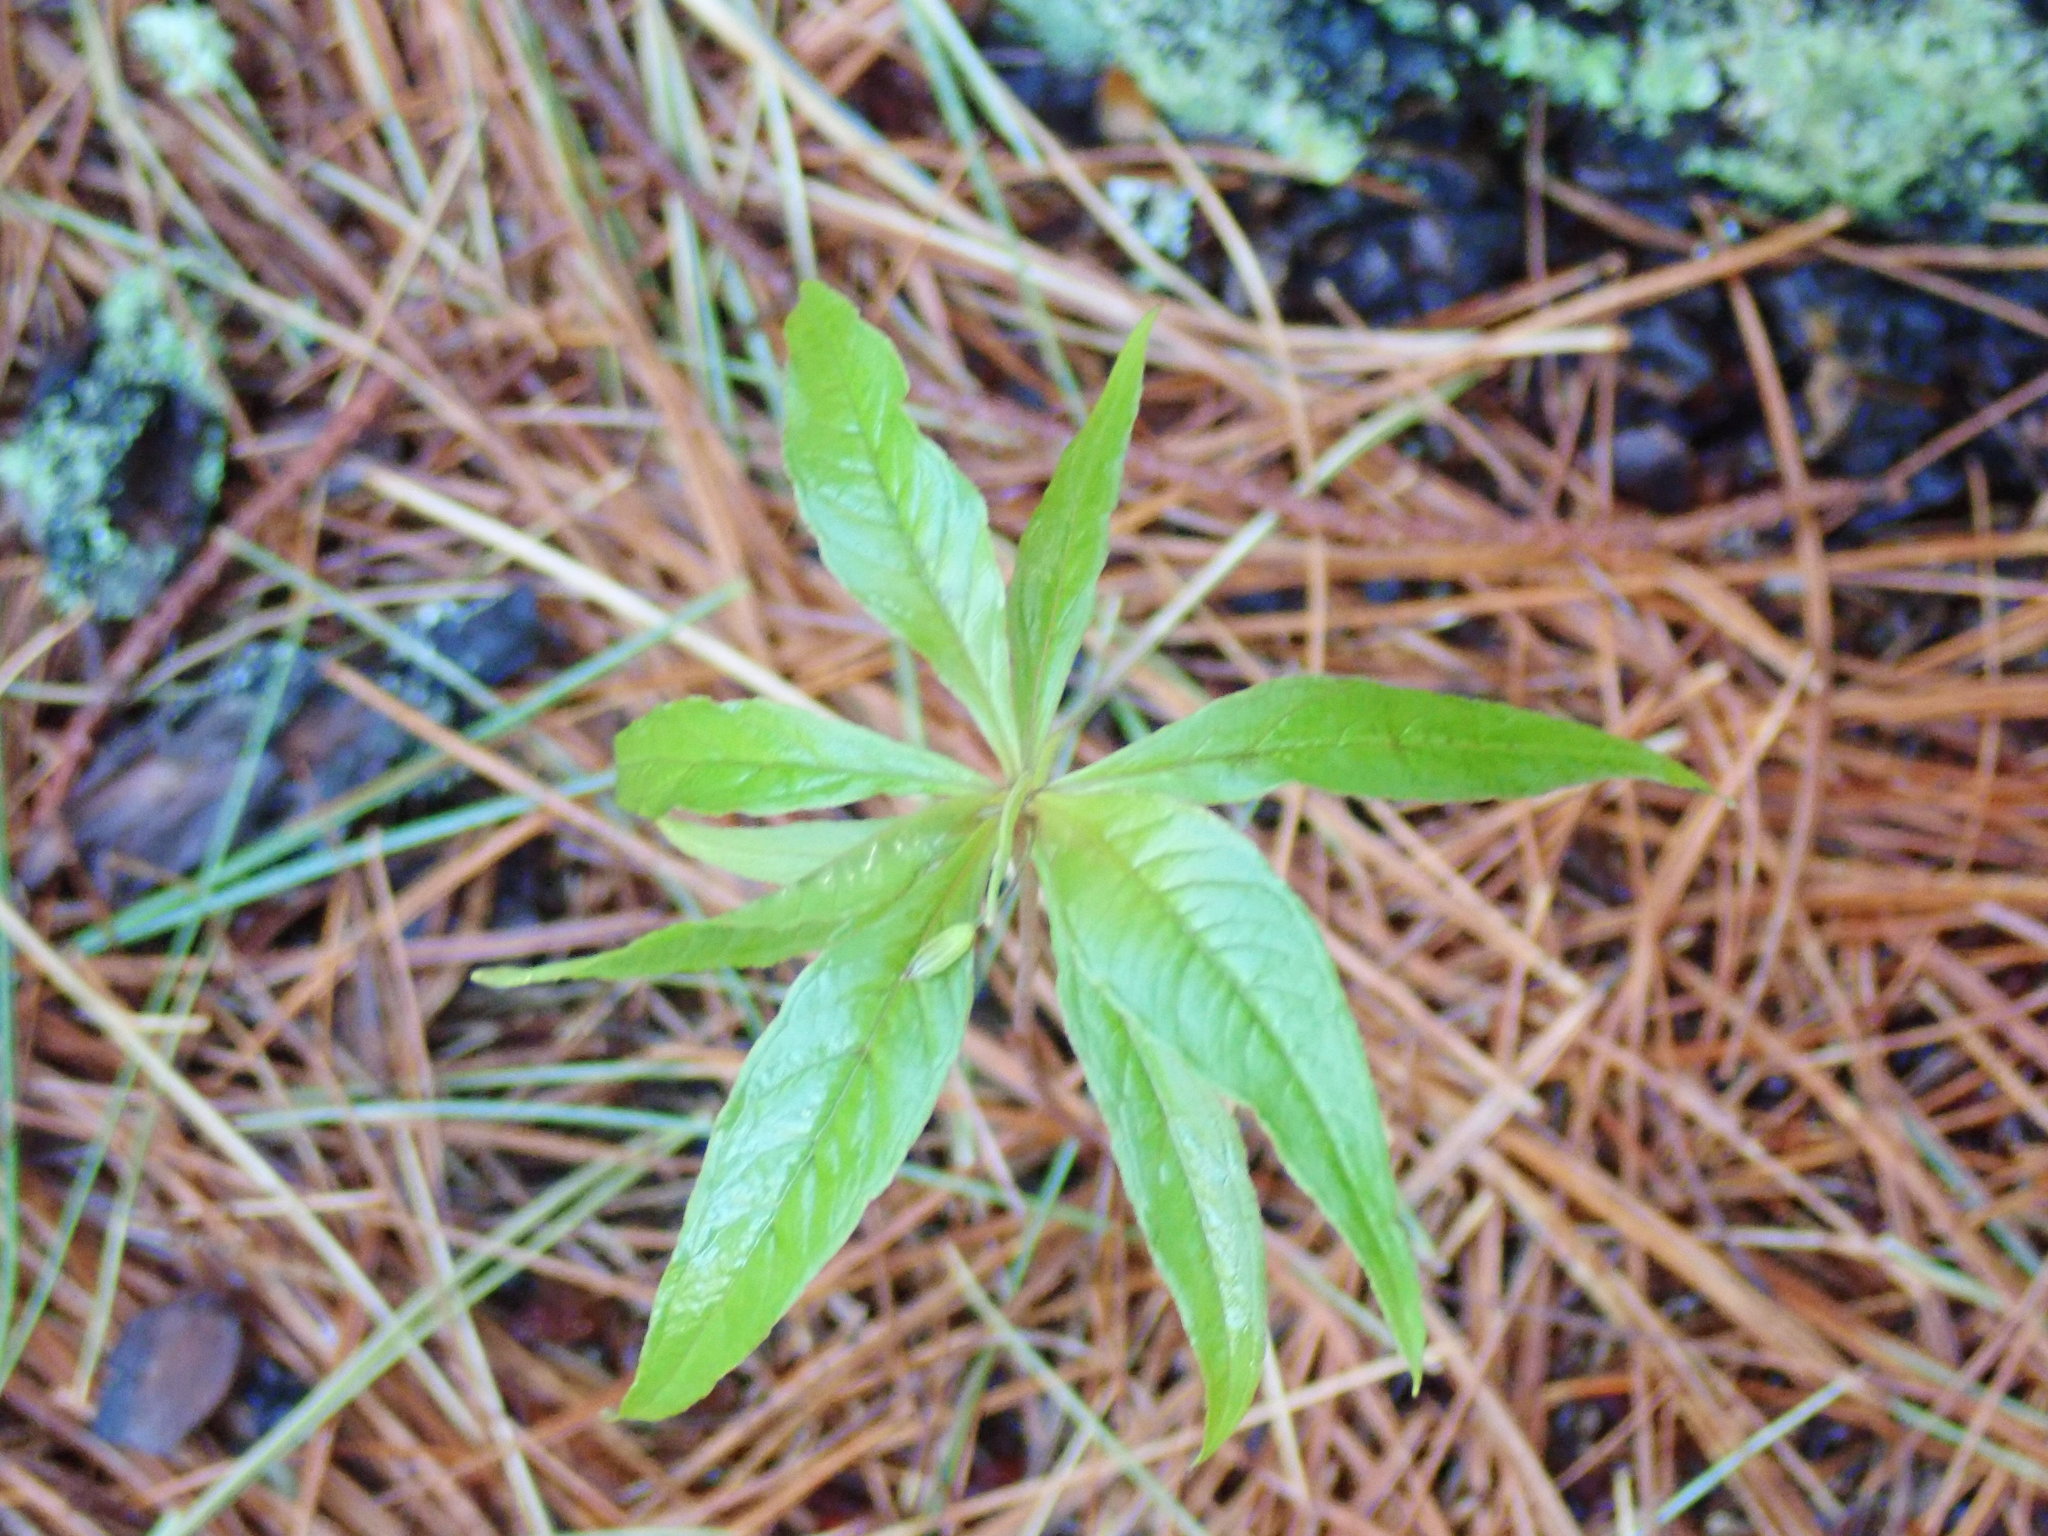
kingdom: Plantae
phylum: Tracheophyta
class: Magnoliopsida
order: Ericales
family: Primulaceae
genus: Lysimachia
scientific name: Lysimachia borealis
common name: American starflower
